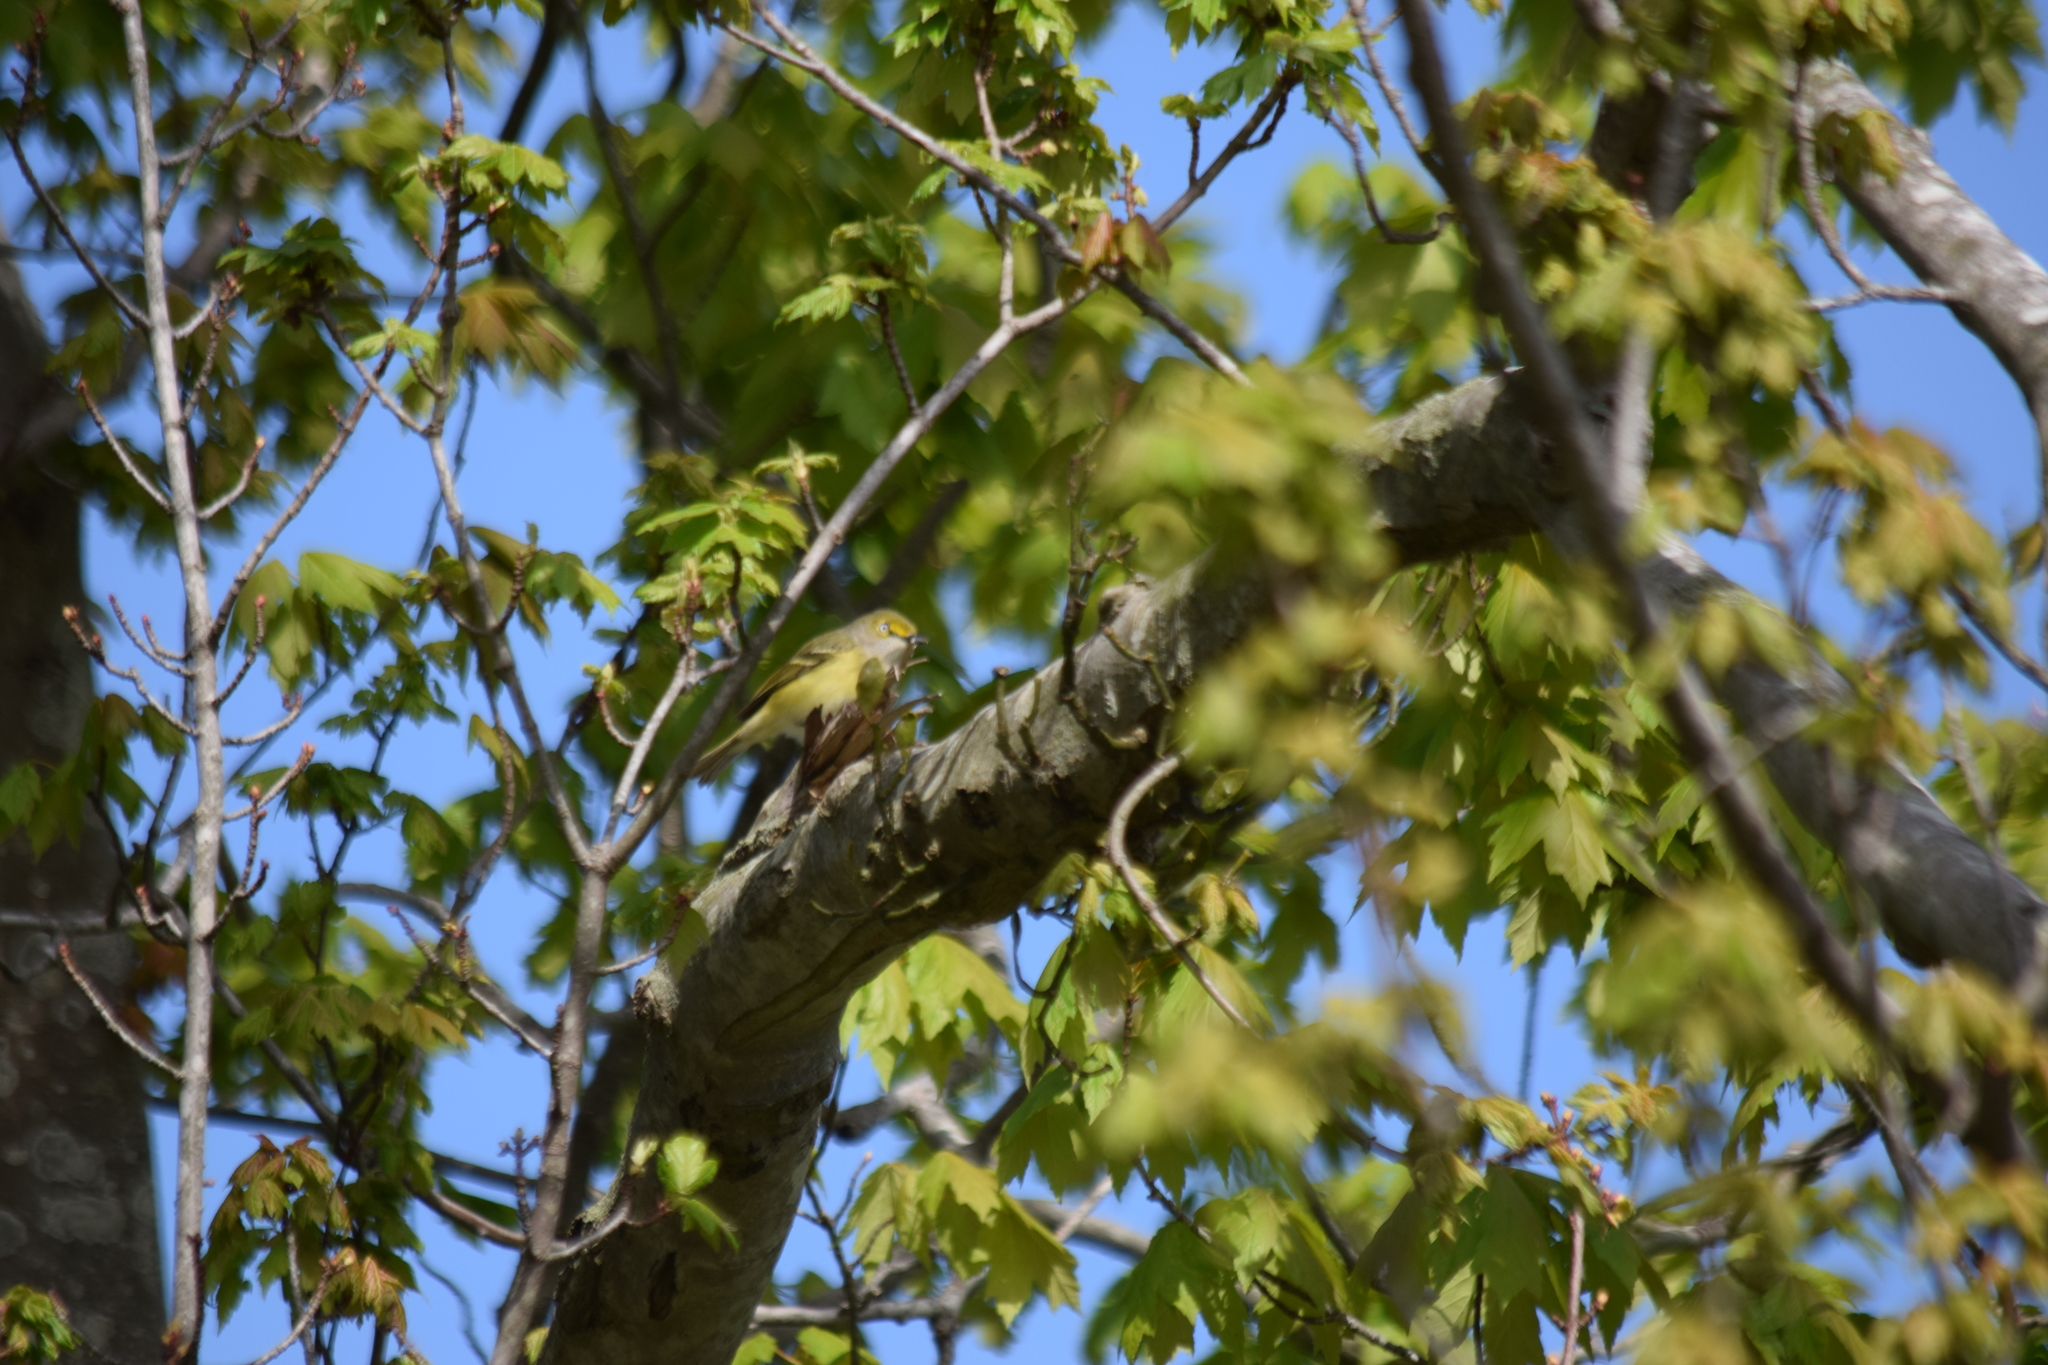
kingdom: Animalia
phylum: Chordata
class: Aves
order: Passeriformes
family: Vireonidae
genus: Vireo
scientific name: Vireo griseus
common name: White-eyed vireo
